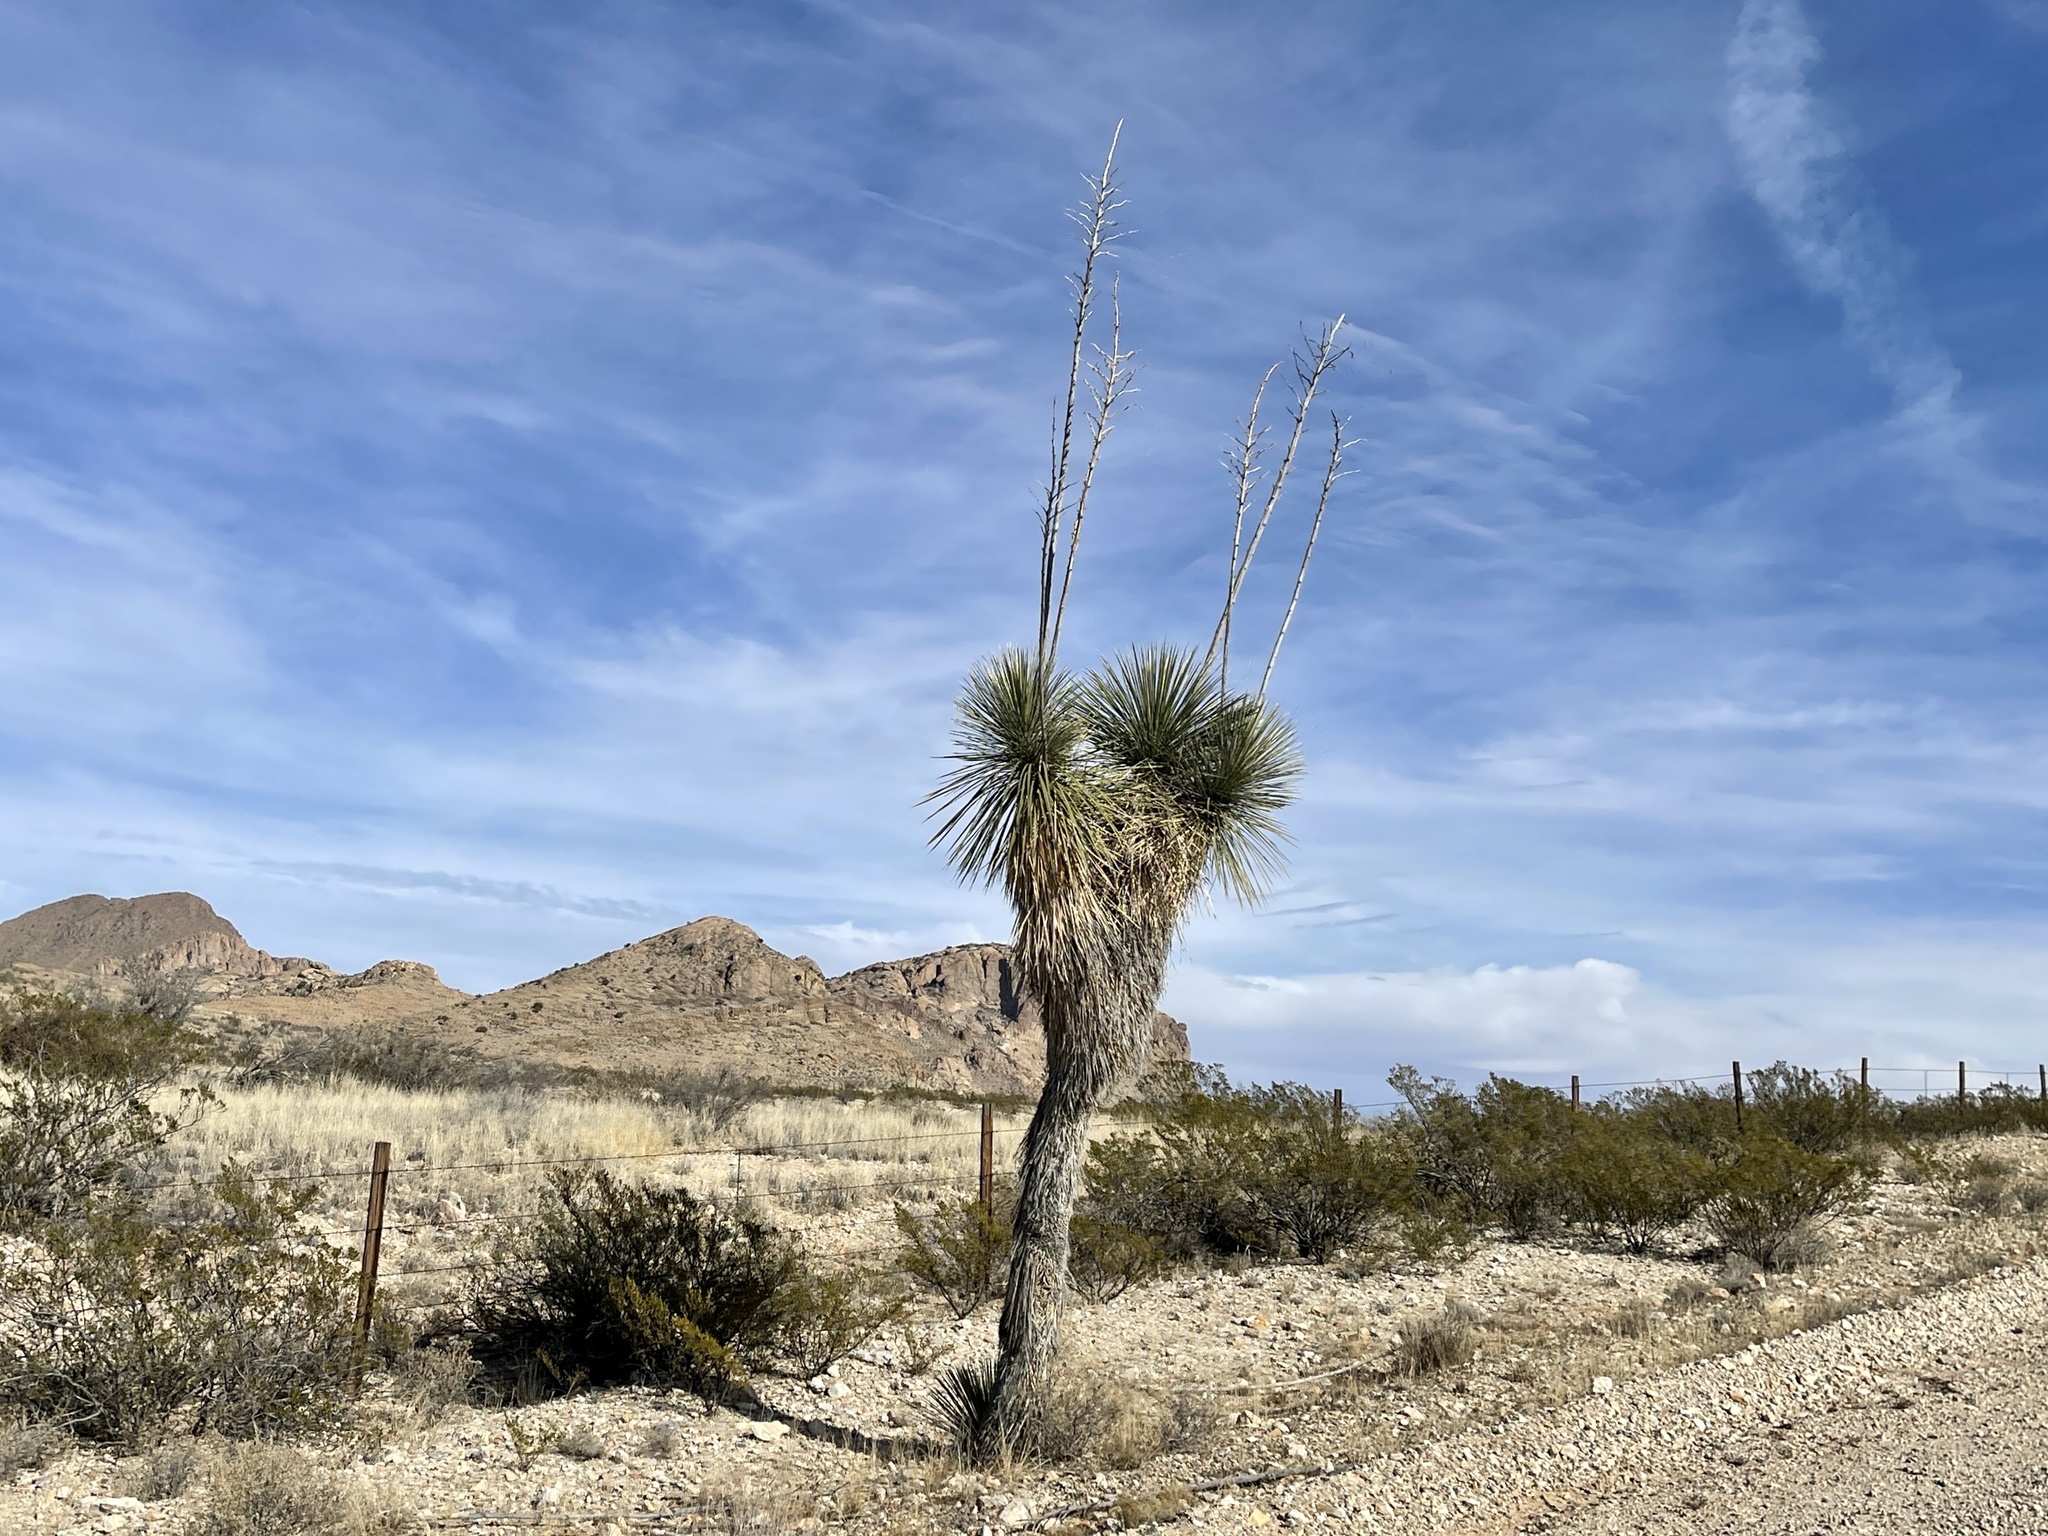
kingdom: Plantae
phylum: Tracheophyta
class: Liliopsida
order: Asparagales
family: Asparagaceae
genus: Yucca
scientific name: Yucca elata
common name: Palmella
